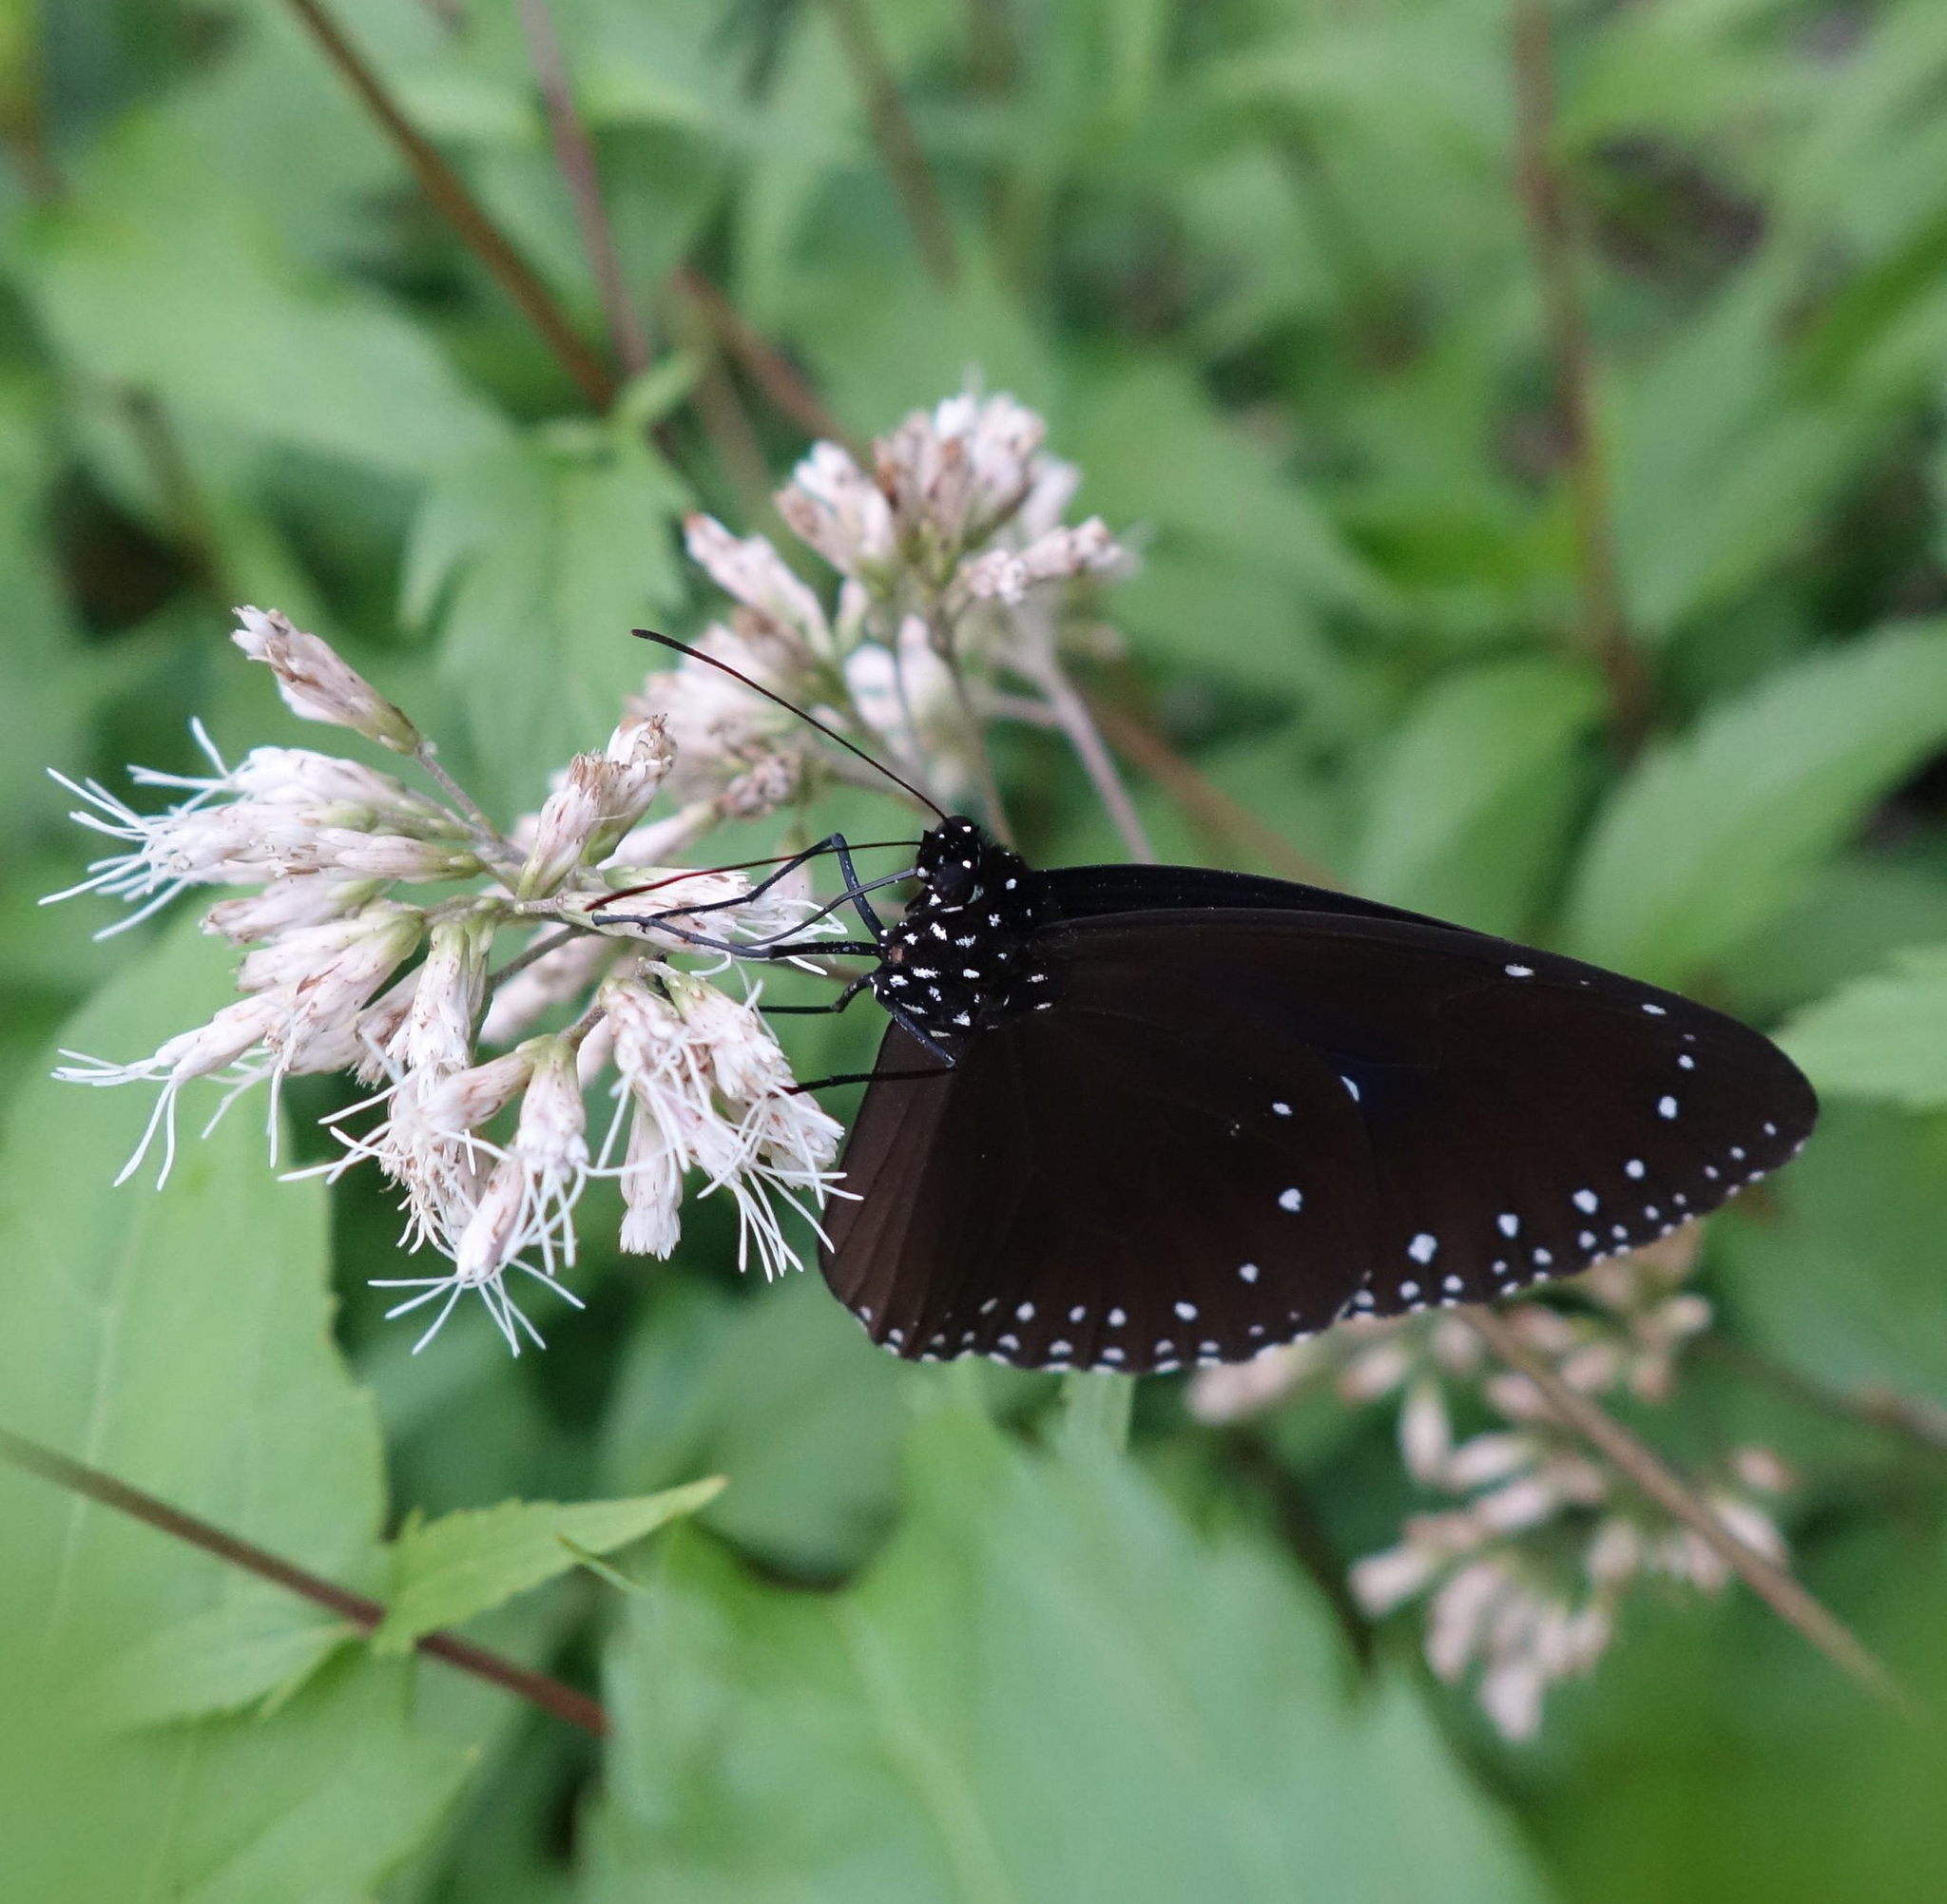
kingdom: Animalia
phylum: Arthropoda
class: Insecta
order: Lepidoptera
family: Nymphalidae
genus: Euploea
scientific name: Euploea tulliolus
